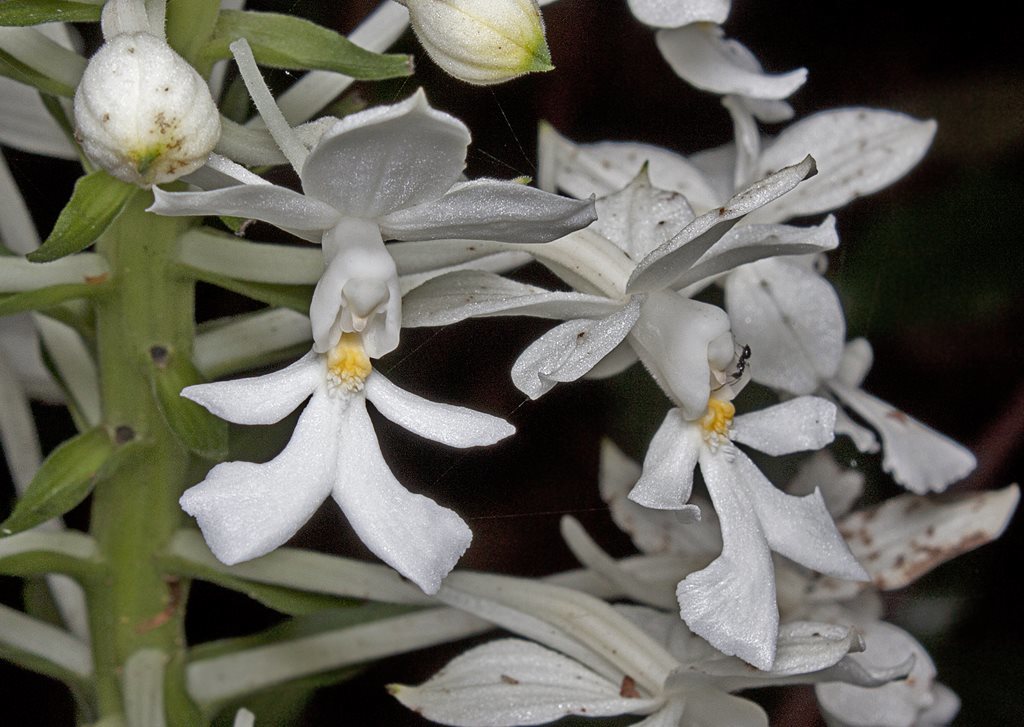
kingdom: Plantae
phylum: Tracheophyta
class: Liliopsida
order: Asparagales
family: Orchidaceae
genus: Calanthe
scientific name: Calanthe triplicata
